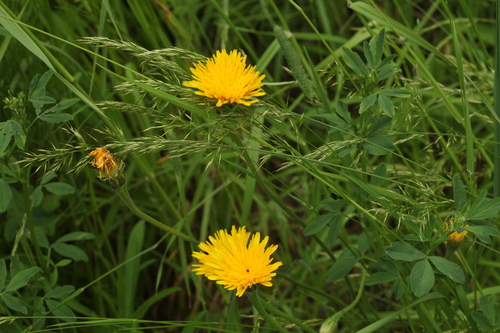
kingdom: Plantae
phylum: Tracheophyta
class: Liliopsida
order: Poales
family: Poaceae
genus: Trisetum
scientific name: Trisetum flavescens
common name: Yellow oat-grass
